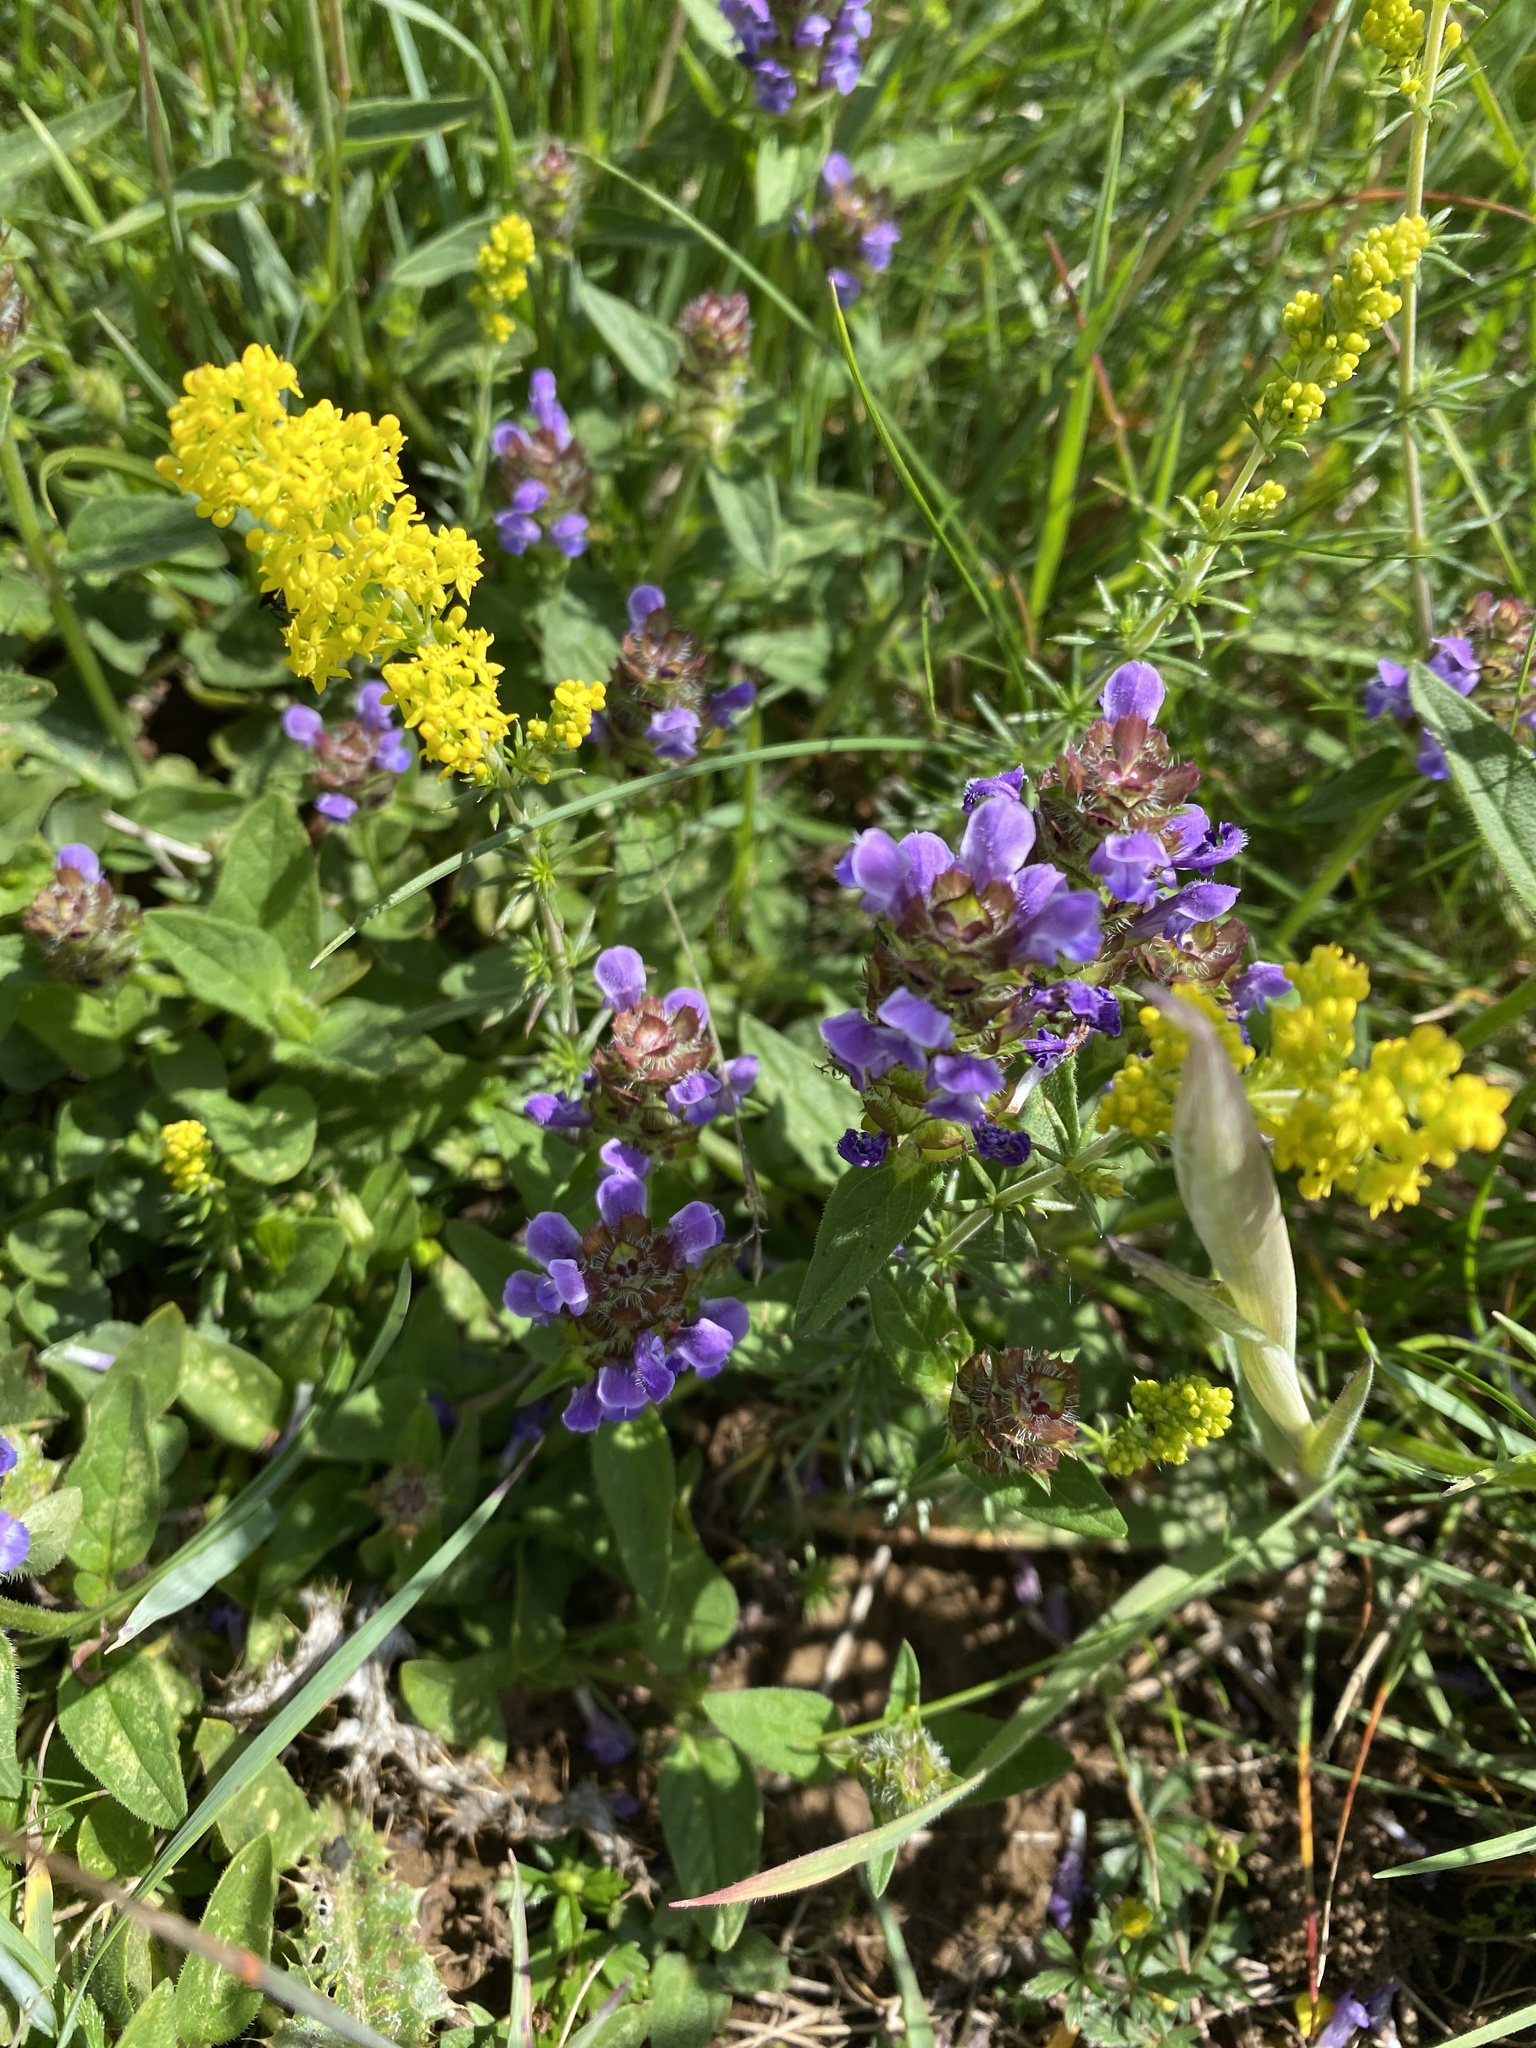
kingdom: Plantae
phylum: Tracheophyta
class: Magnoliopsida
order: Lamiales
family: Lamiaceae
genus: Prunella
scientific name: Prunella vulgaris
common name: Heal-all
